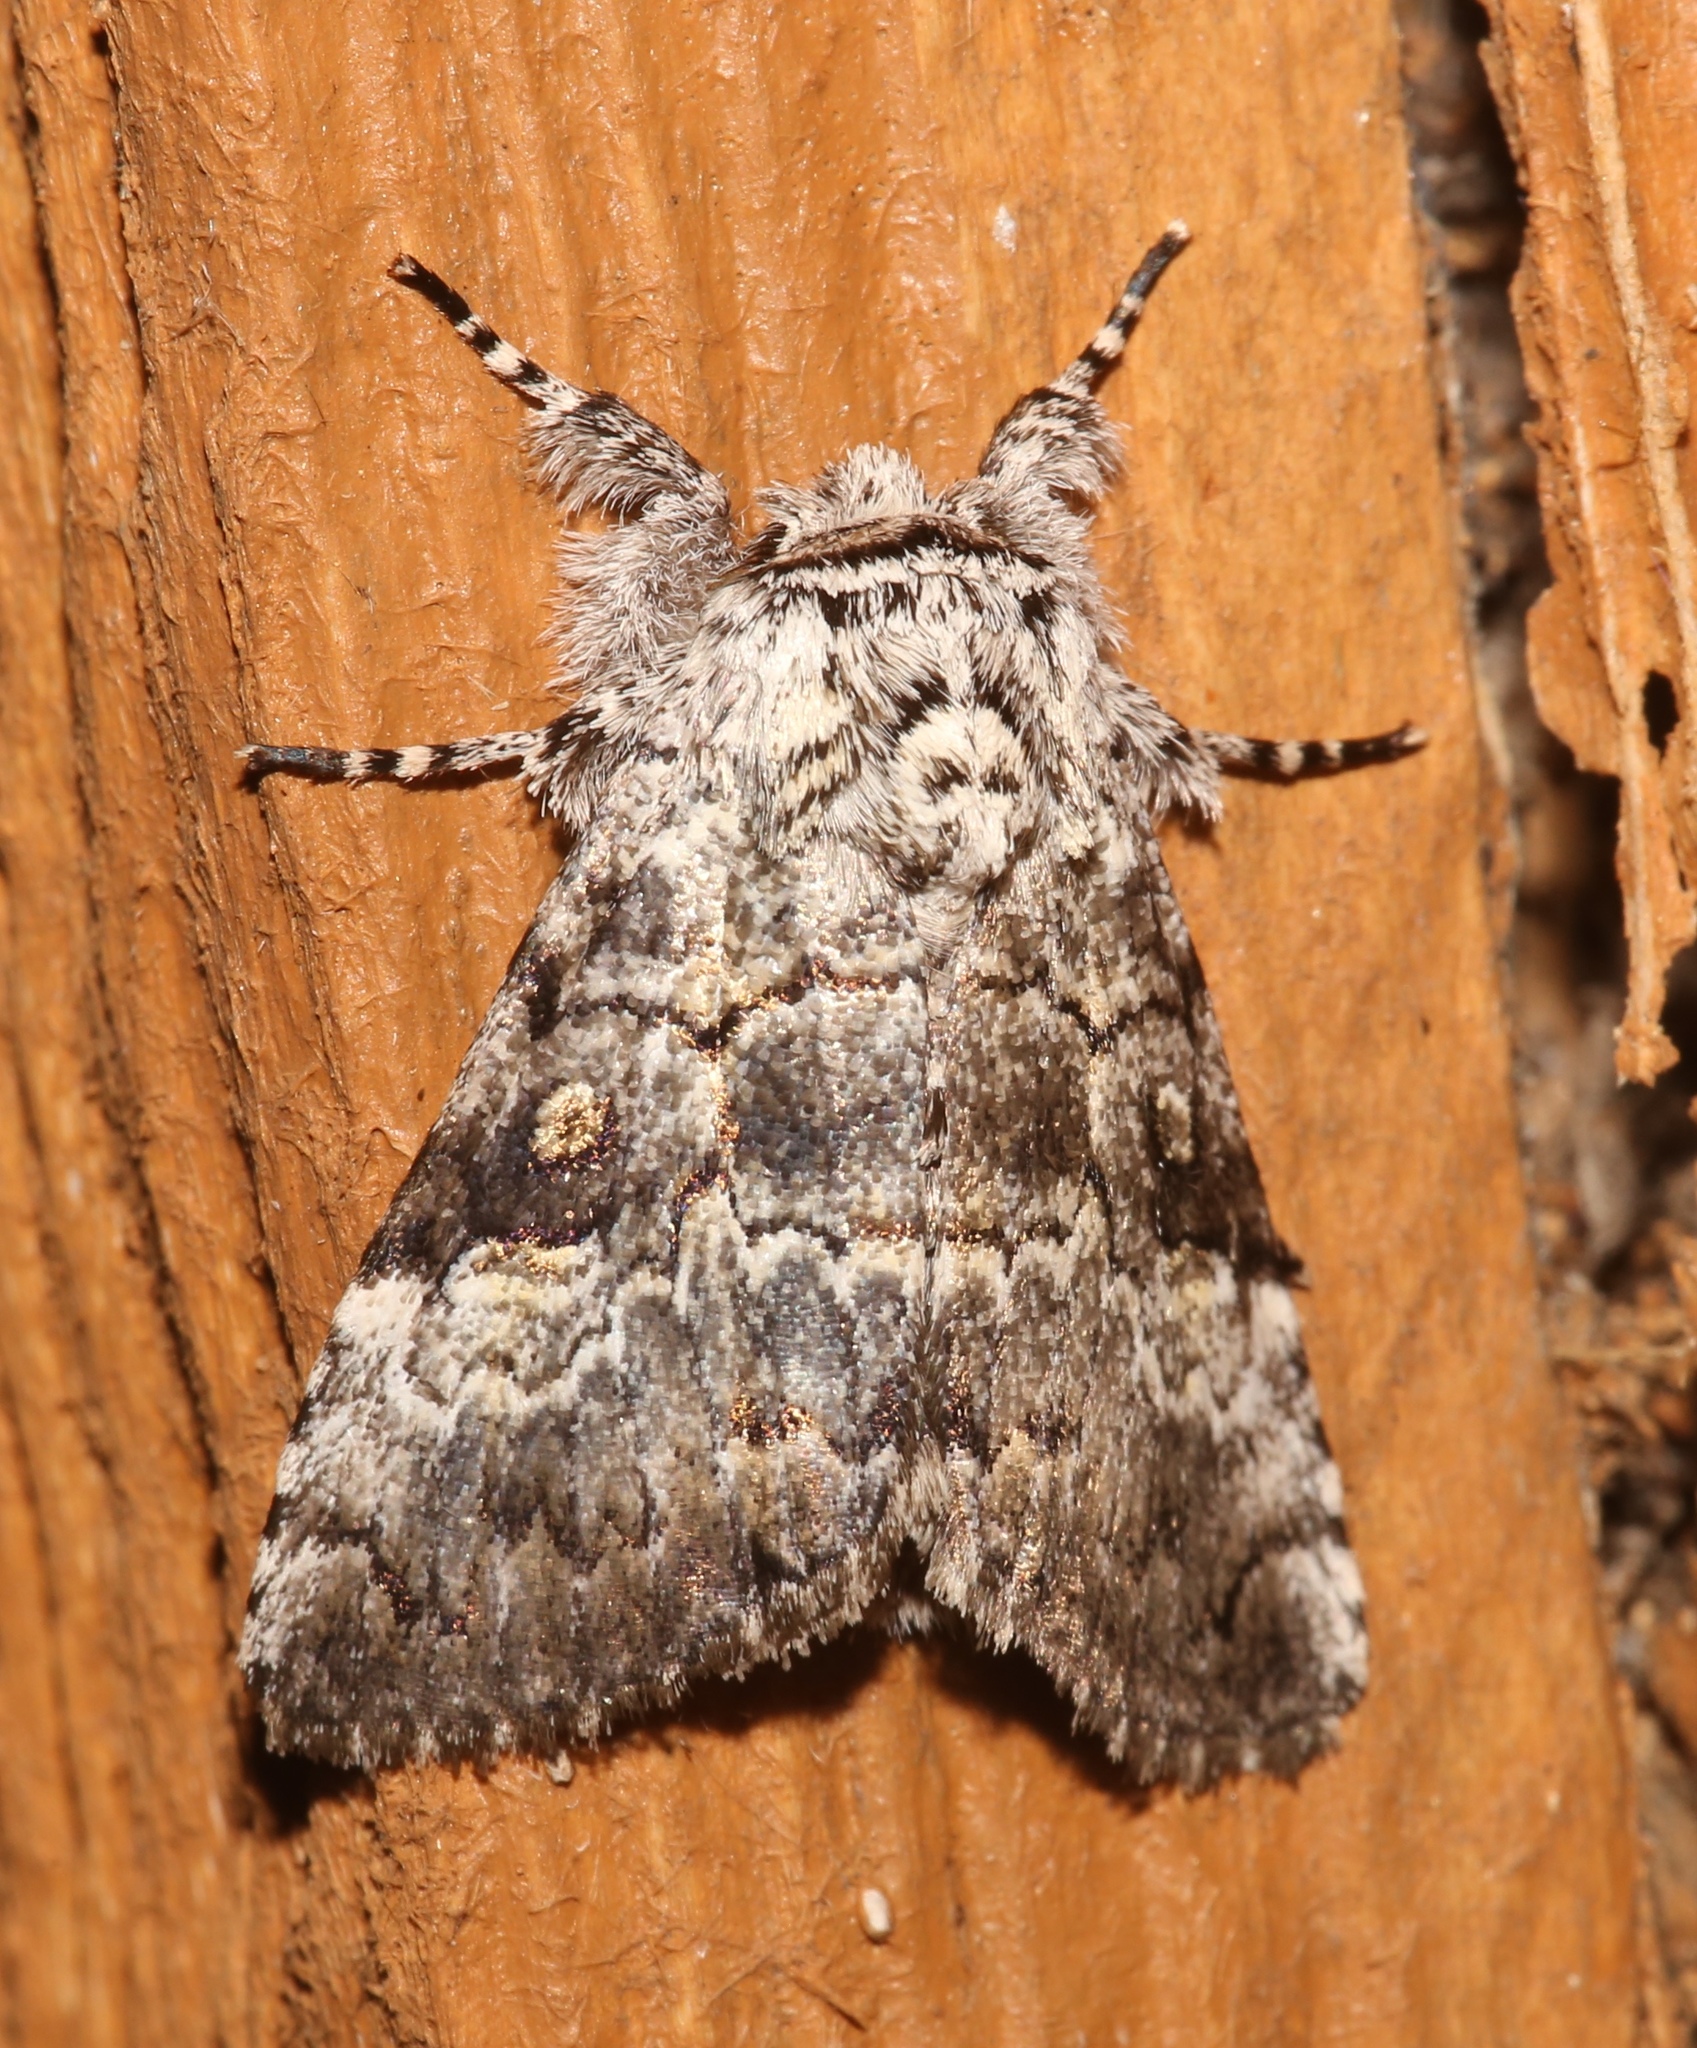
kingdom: Animalia
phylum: Arthropoda
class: Insecta
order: Lepidoptera
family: Noctuidae
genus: Charadra
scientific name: Charadra deridens
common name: Marbled tuffet
